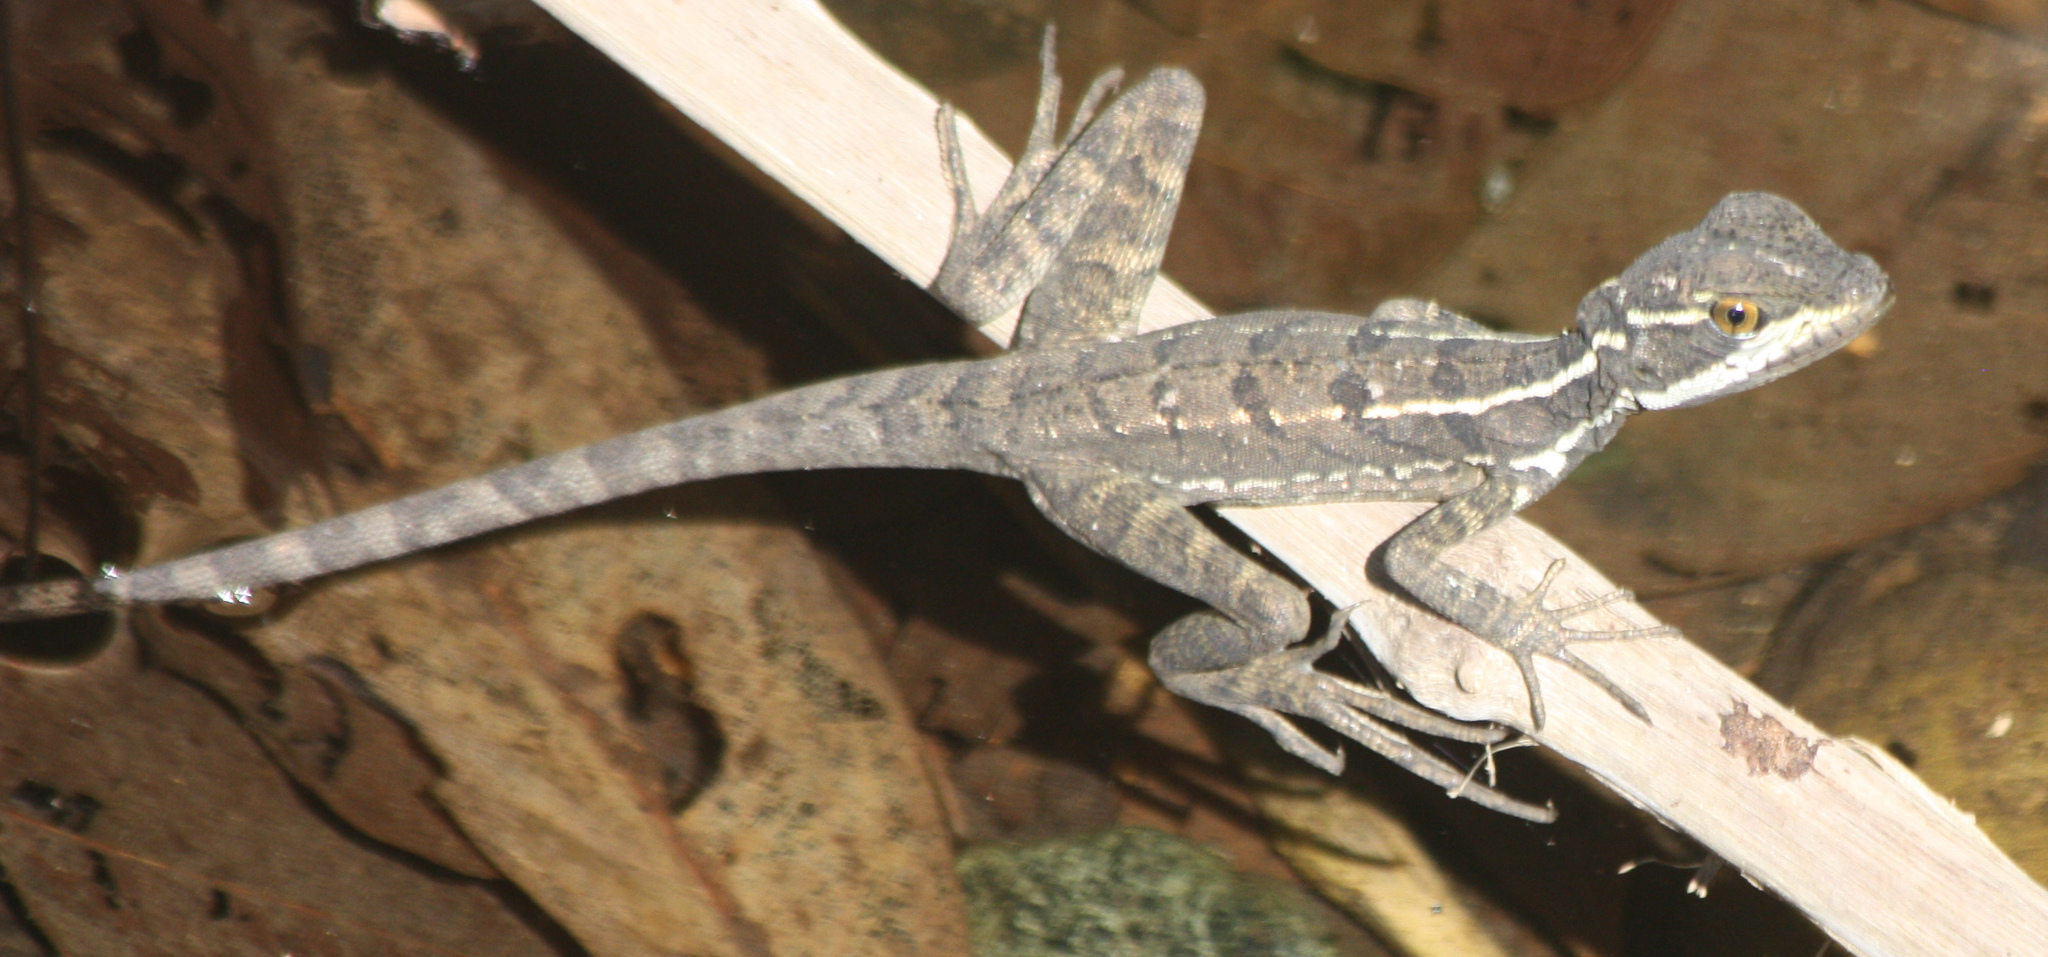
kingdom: Animalia
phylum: Chordata
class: Squamata
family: Corytophanidae
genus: Basiliscus
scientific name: Basiliscus basiliscus
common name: Common basilisk
